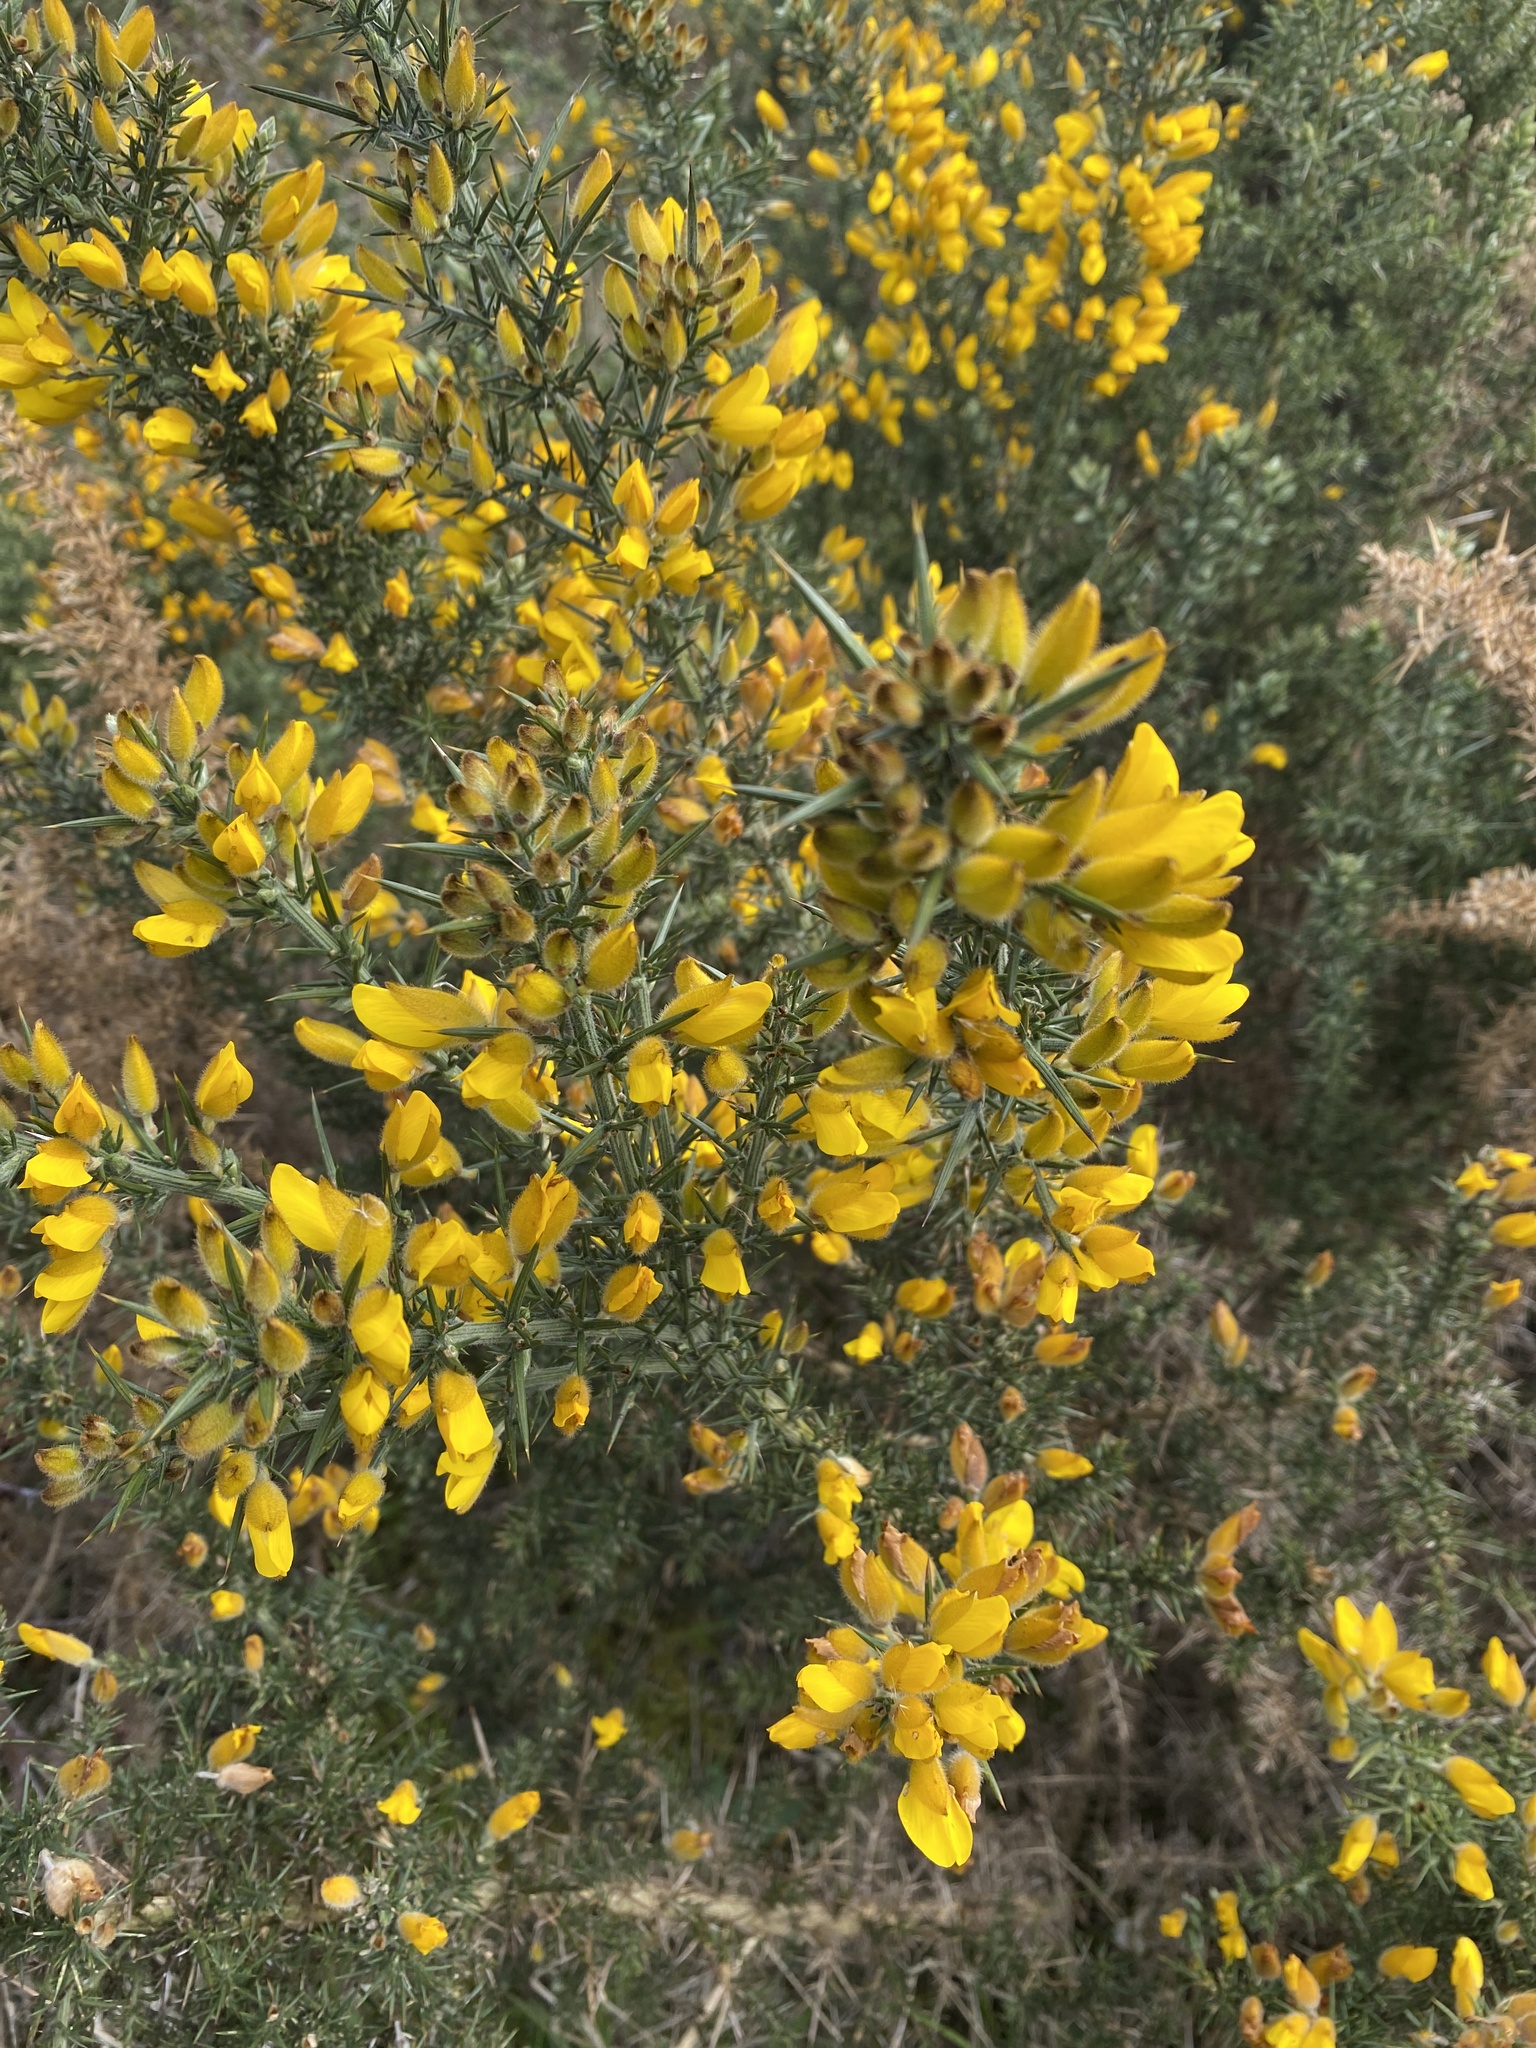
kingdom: Plantae
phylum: Tracheophyta
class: Magnoliopsida
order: Fabales
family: Fabaceae
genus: Ulex
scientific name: Ulex europaeus
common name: Common gorse
